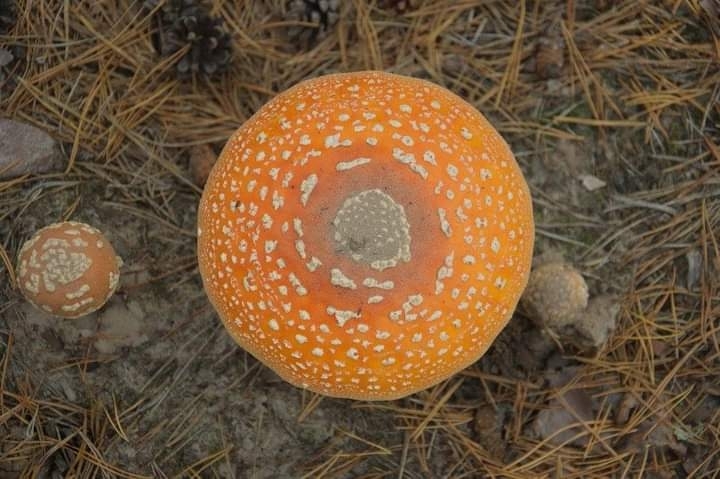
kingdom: Fungi
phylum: Basidiomycota
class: Agaricomycetes
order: Agaricales
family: Amanitaceae
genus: Amanita
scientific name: Amanita muscaria
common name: Fly agaric
